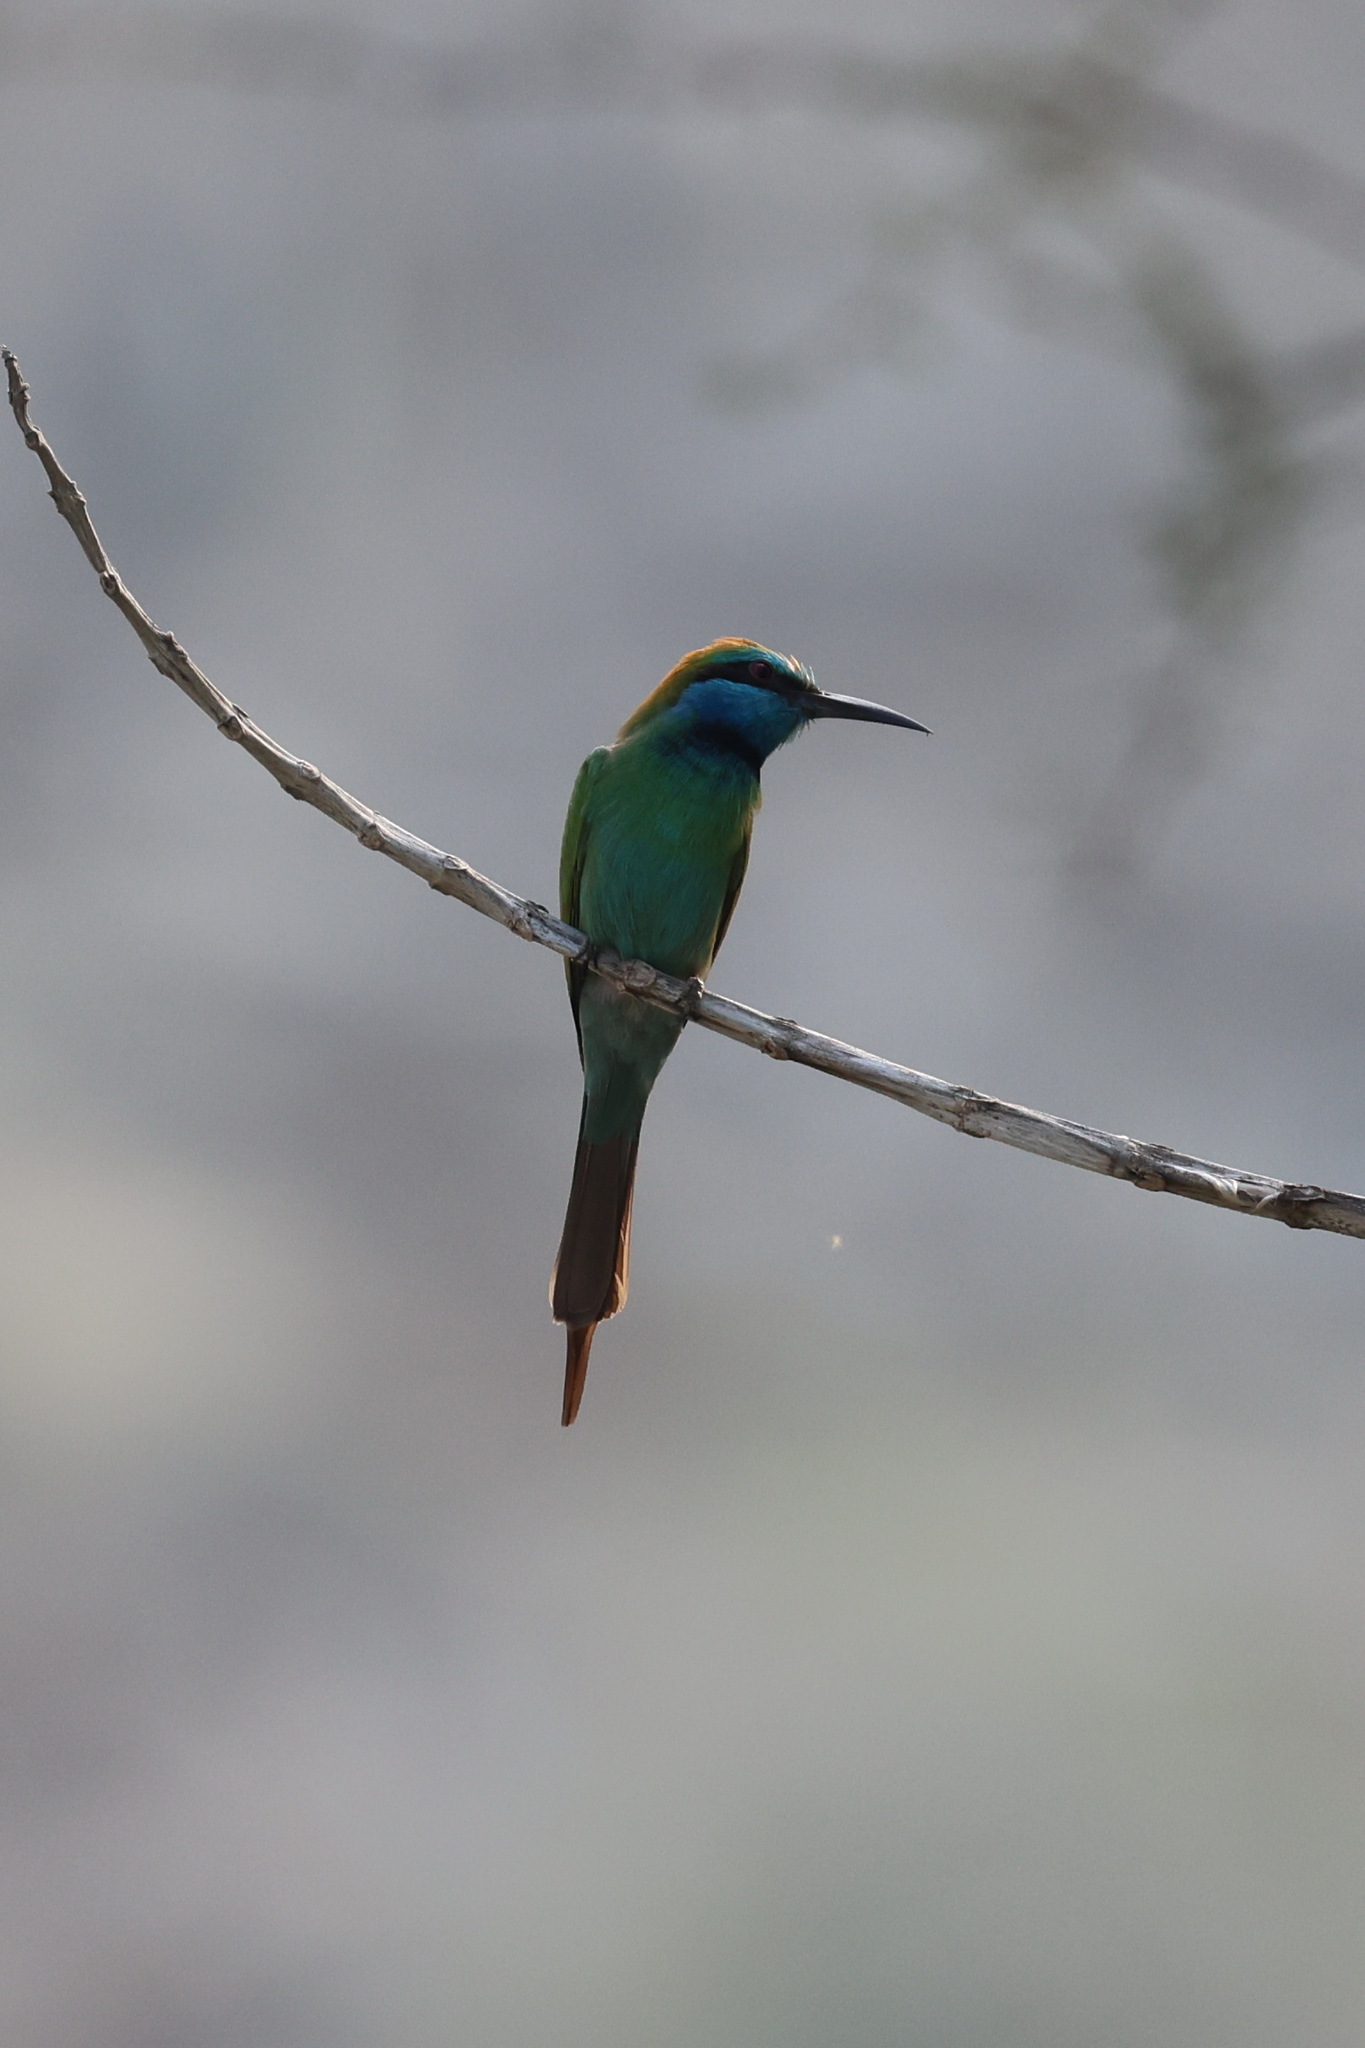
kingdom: Animalia
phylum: Chordata
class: Aves
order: Coraciiformes
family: Meropidae
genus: Merops
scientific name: Merops cyanophrys
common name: Arabian green bee-eater
